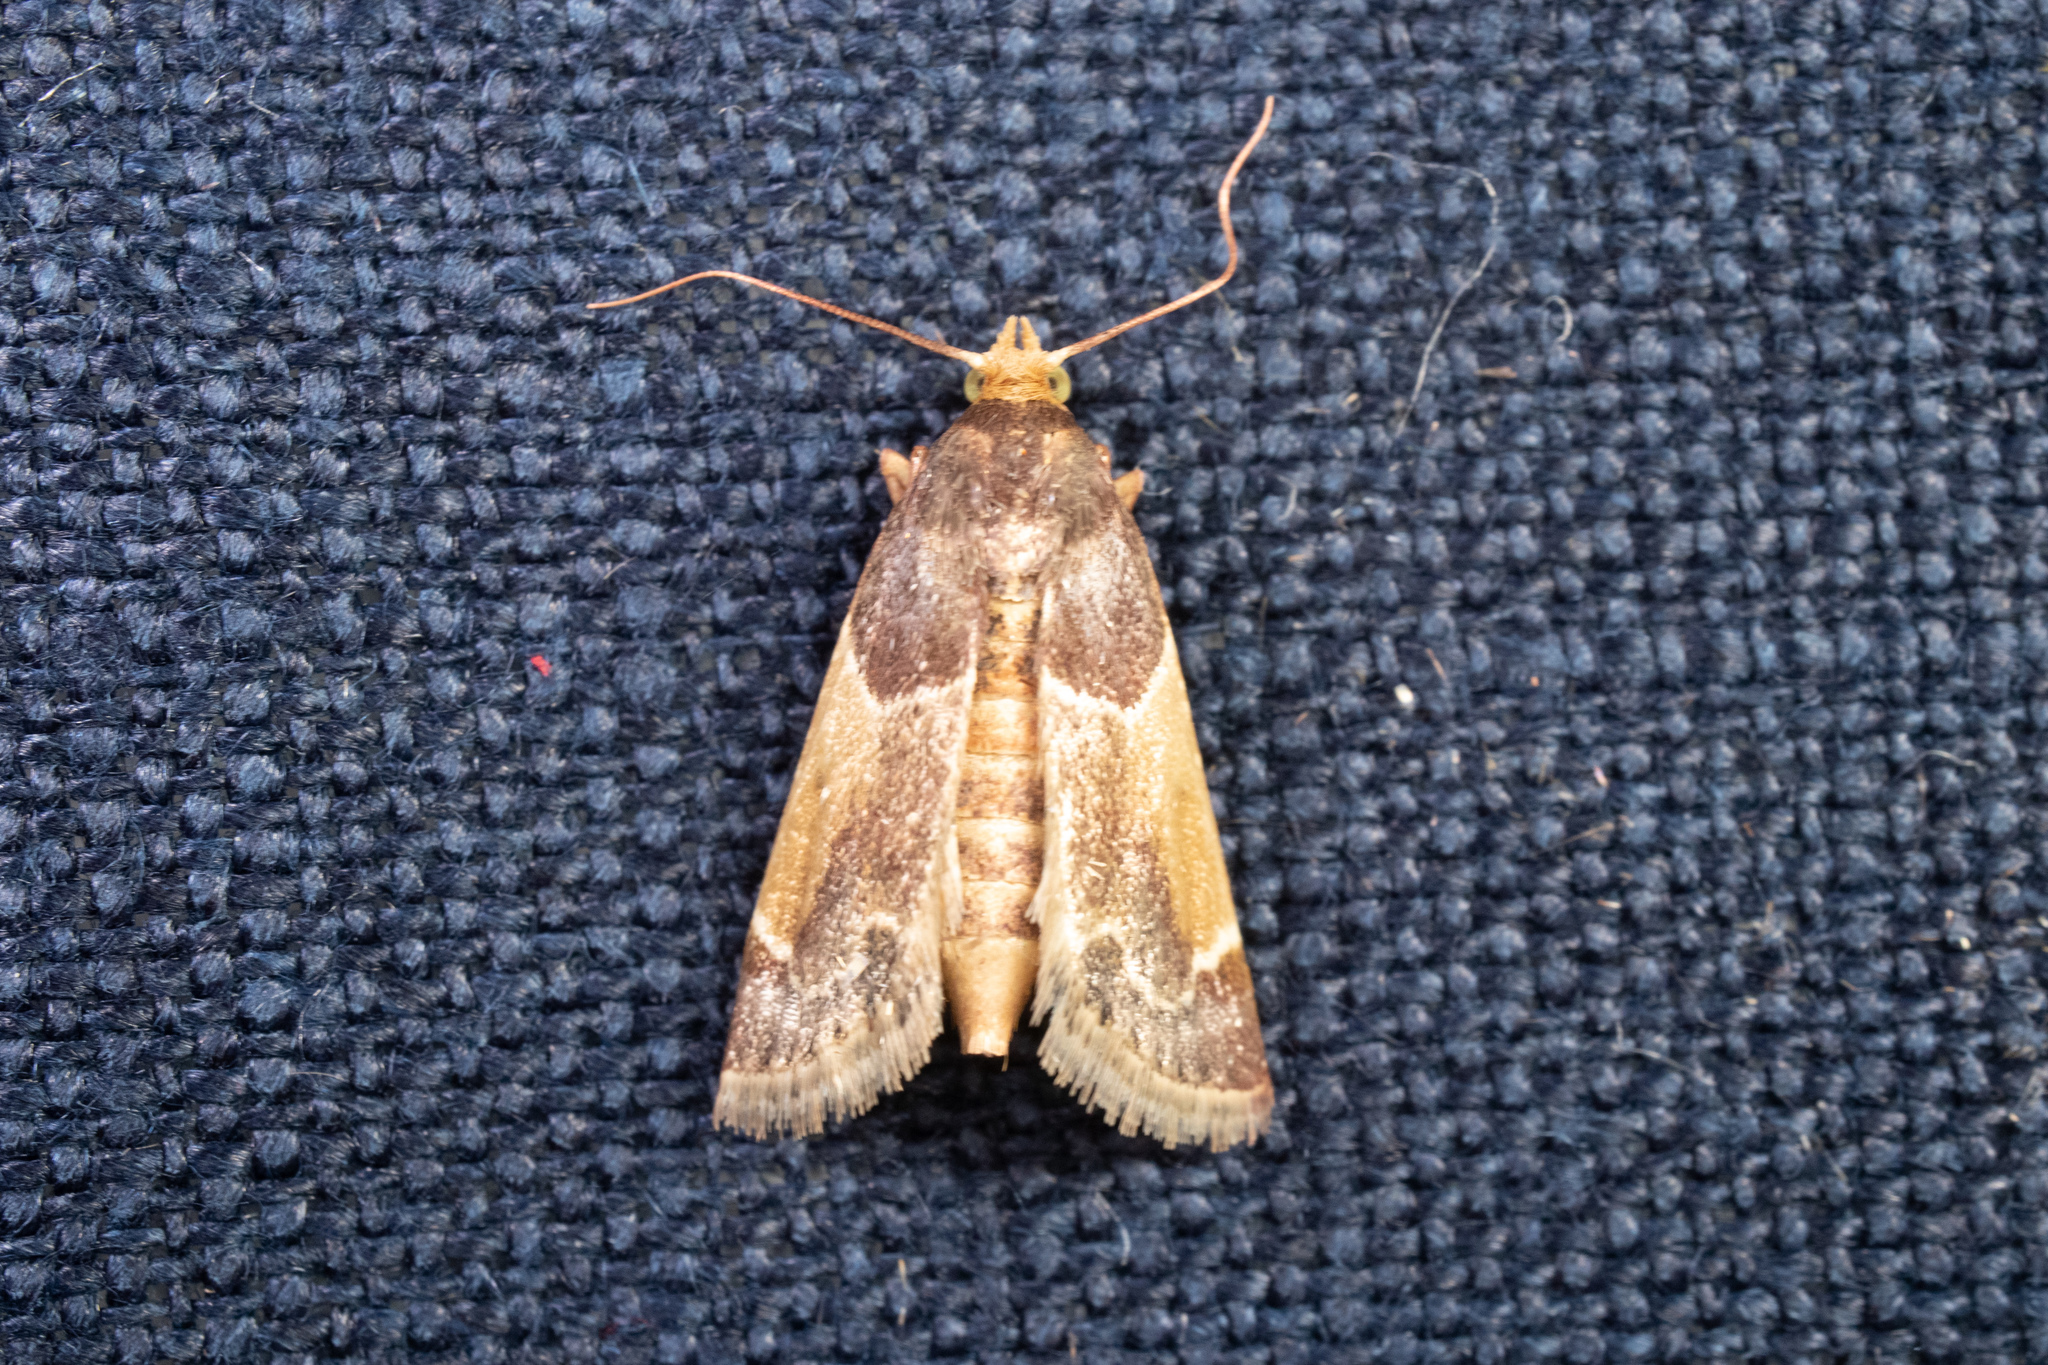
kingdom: Animalia
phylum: Arthropoda
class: Insecta
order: Lepidoptera
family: Pyralidae
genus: Pyralis
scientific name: Pyralis farinalis
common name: Meal moth
